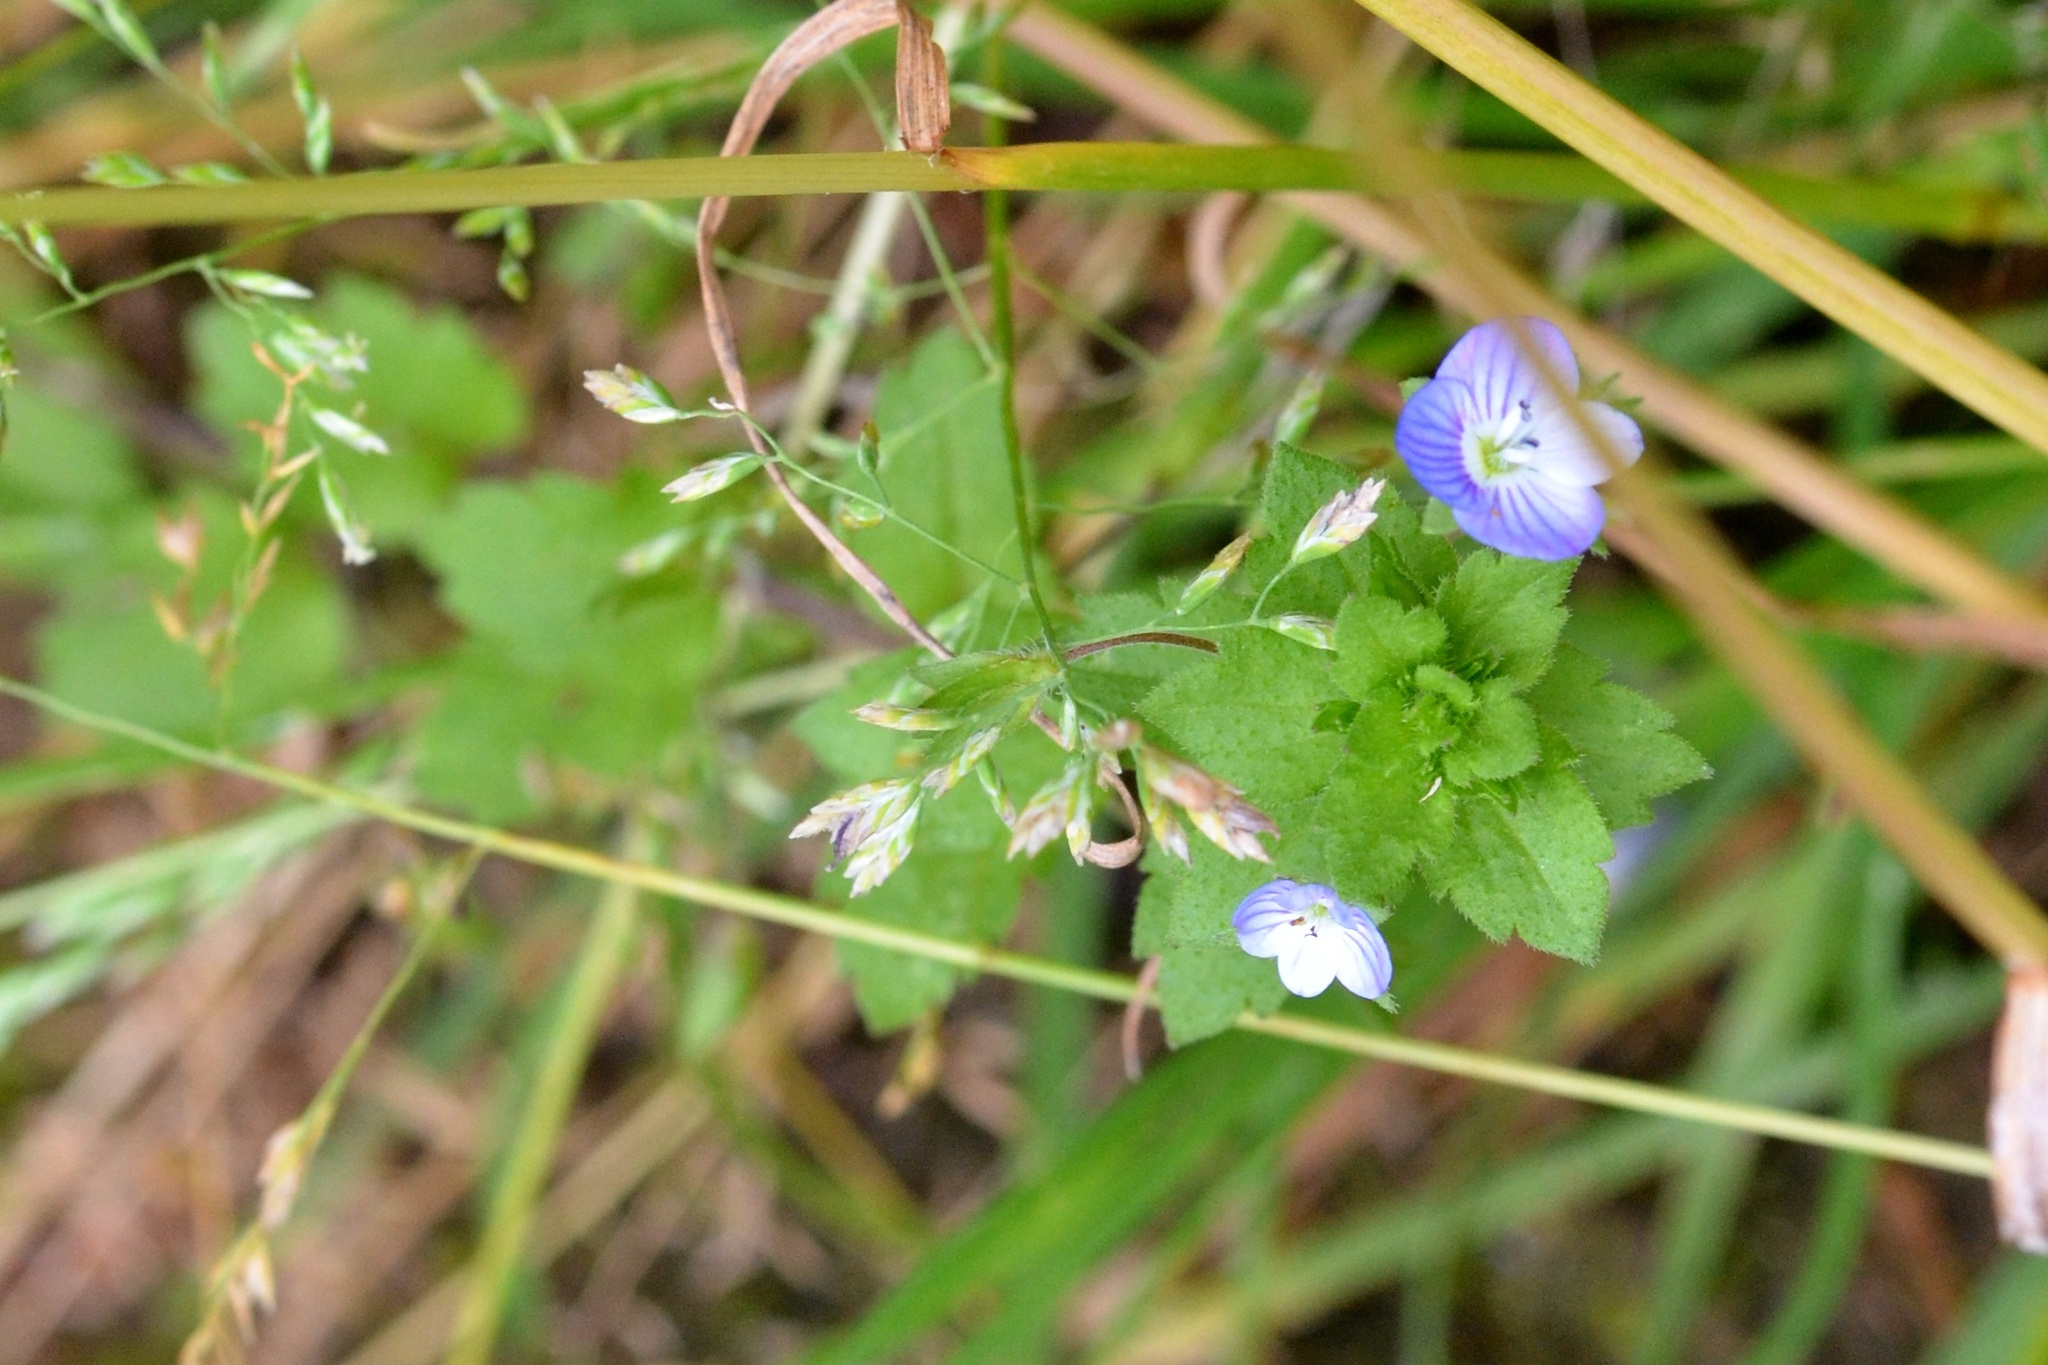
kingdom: Plantae
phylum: Tracheophyta
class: Magnoliopsida
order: Lamiales
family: Plantaginaceae
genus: Veronica
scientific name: Veronica persica
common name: Common field-speedwell
